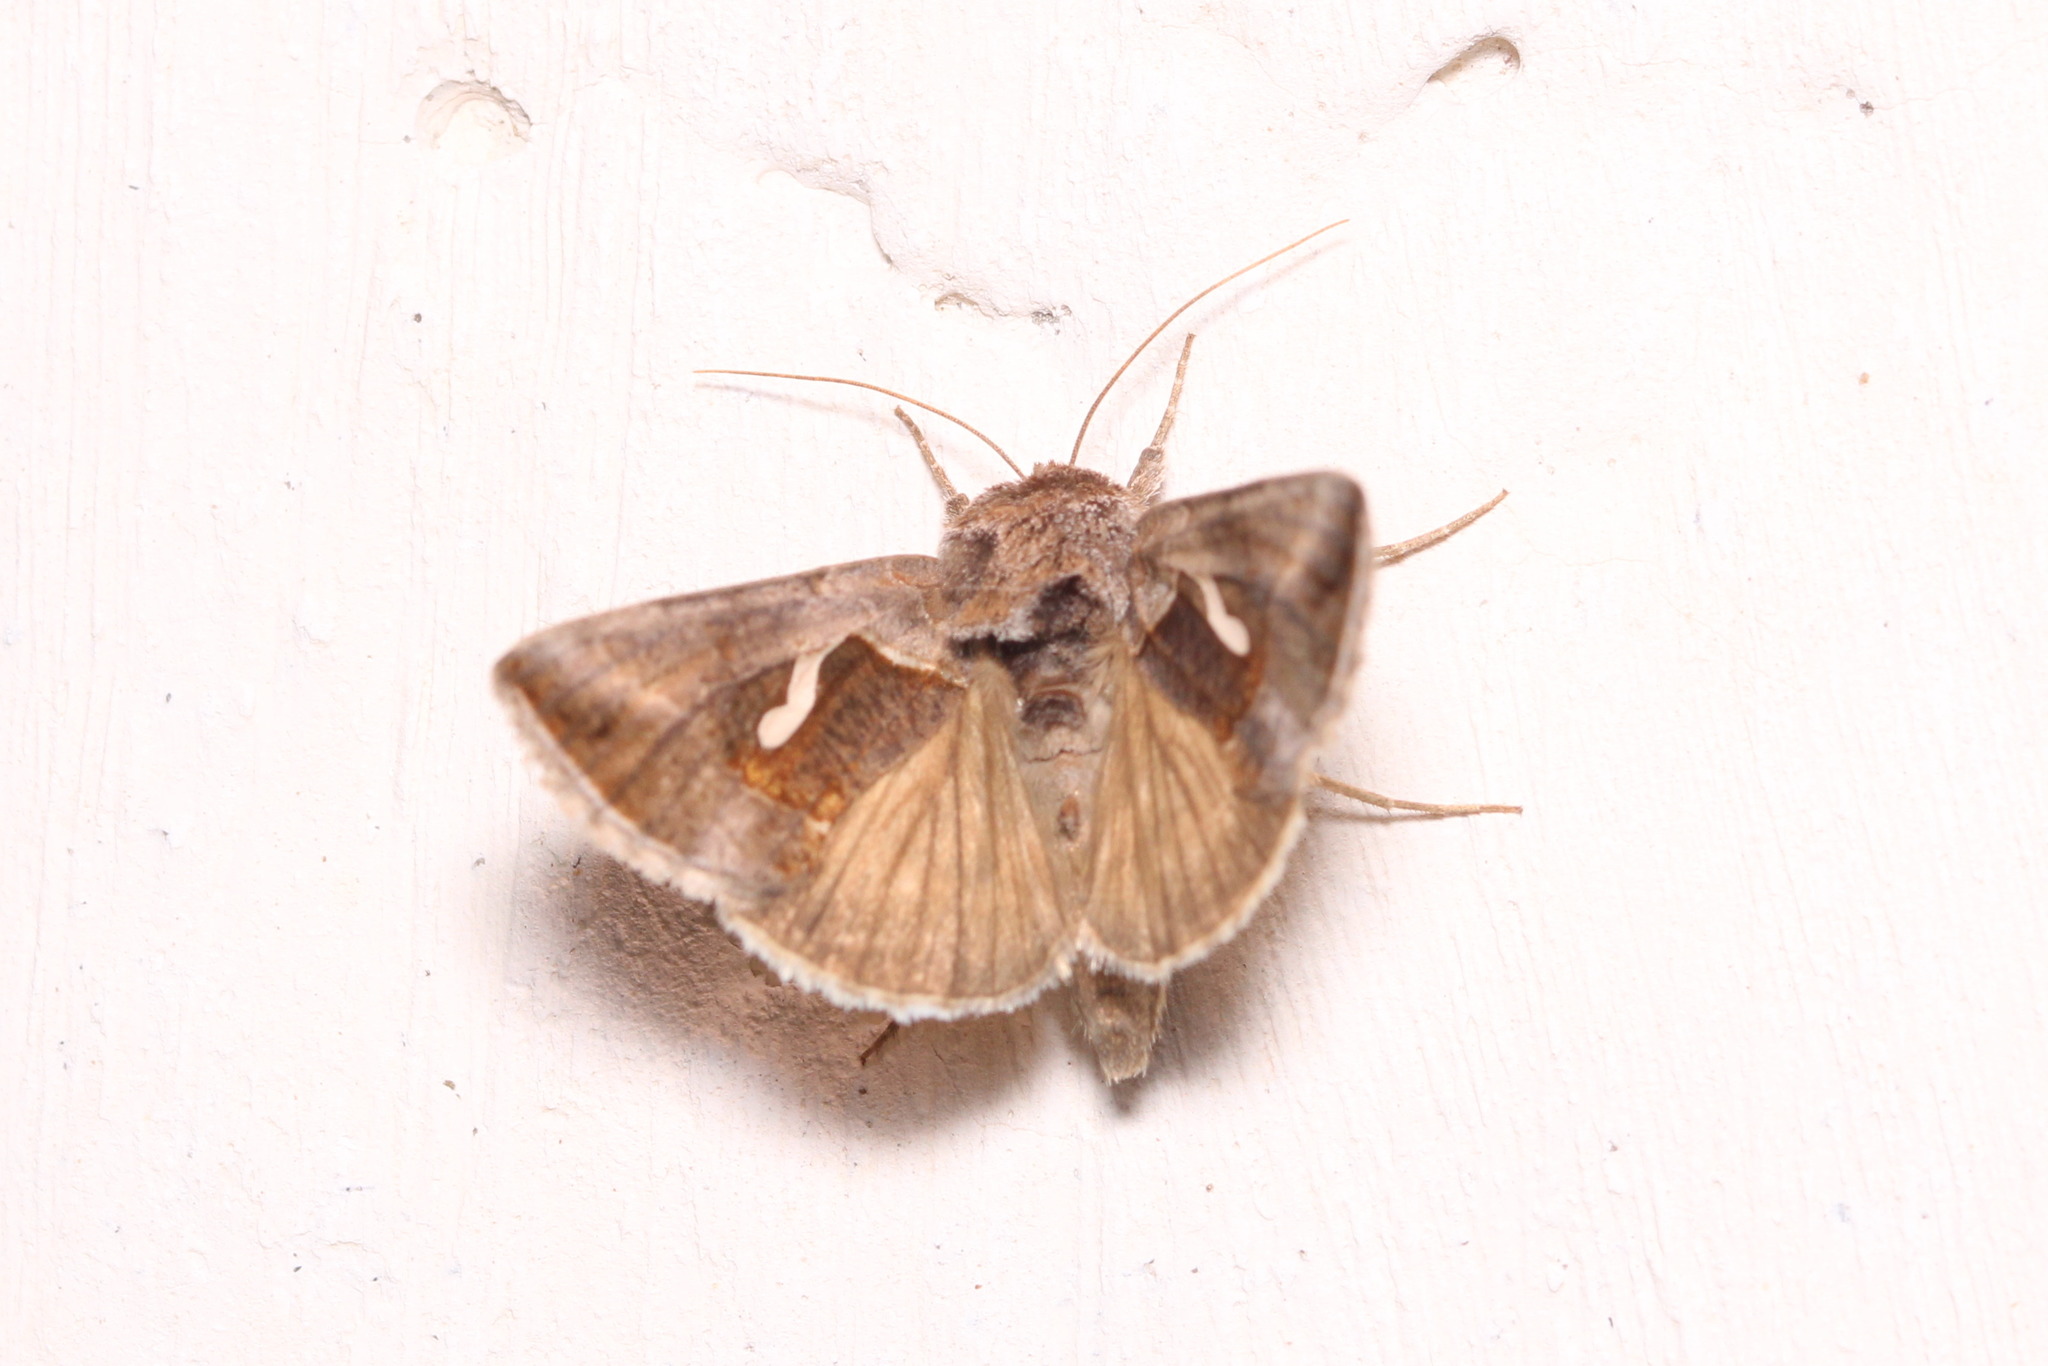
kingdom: Animalia
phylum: Arthropoda
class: Insecta
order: Lepidoptera
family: Noctuidae
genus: Macdunnoughia
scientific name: Macdunnoughia confusa
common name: Dewick's plusia
